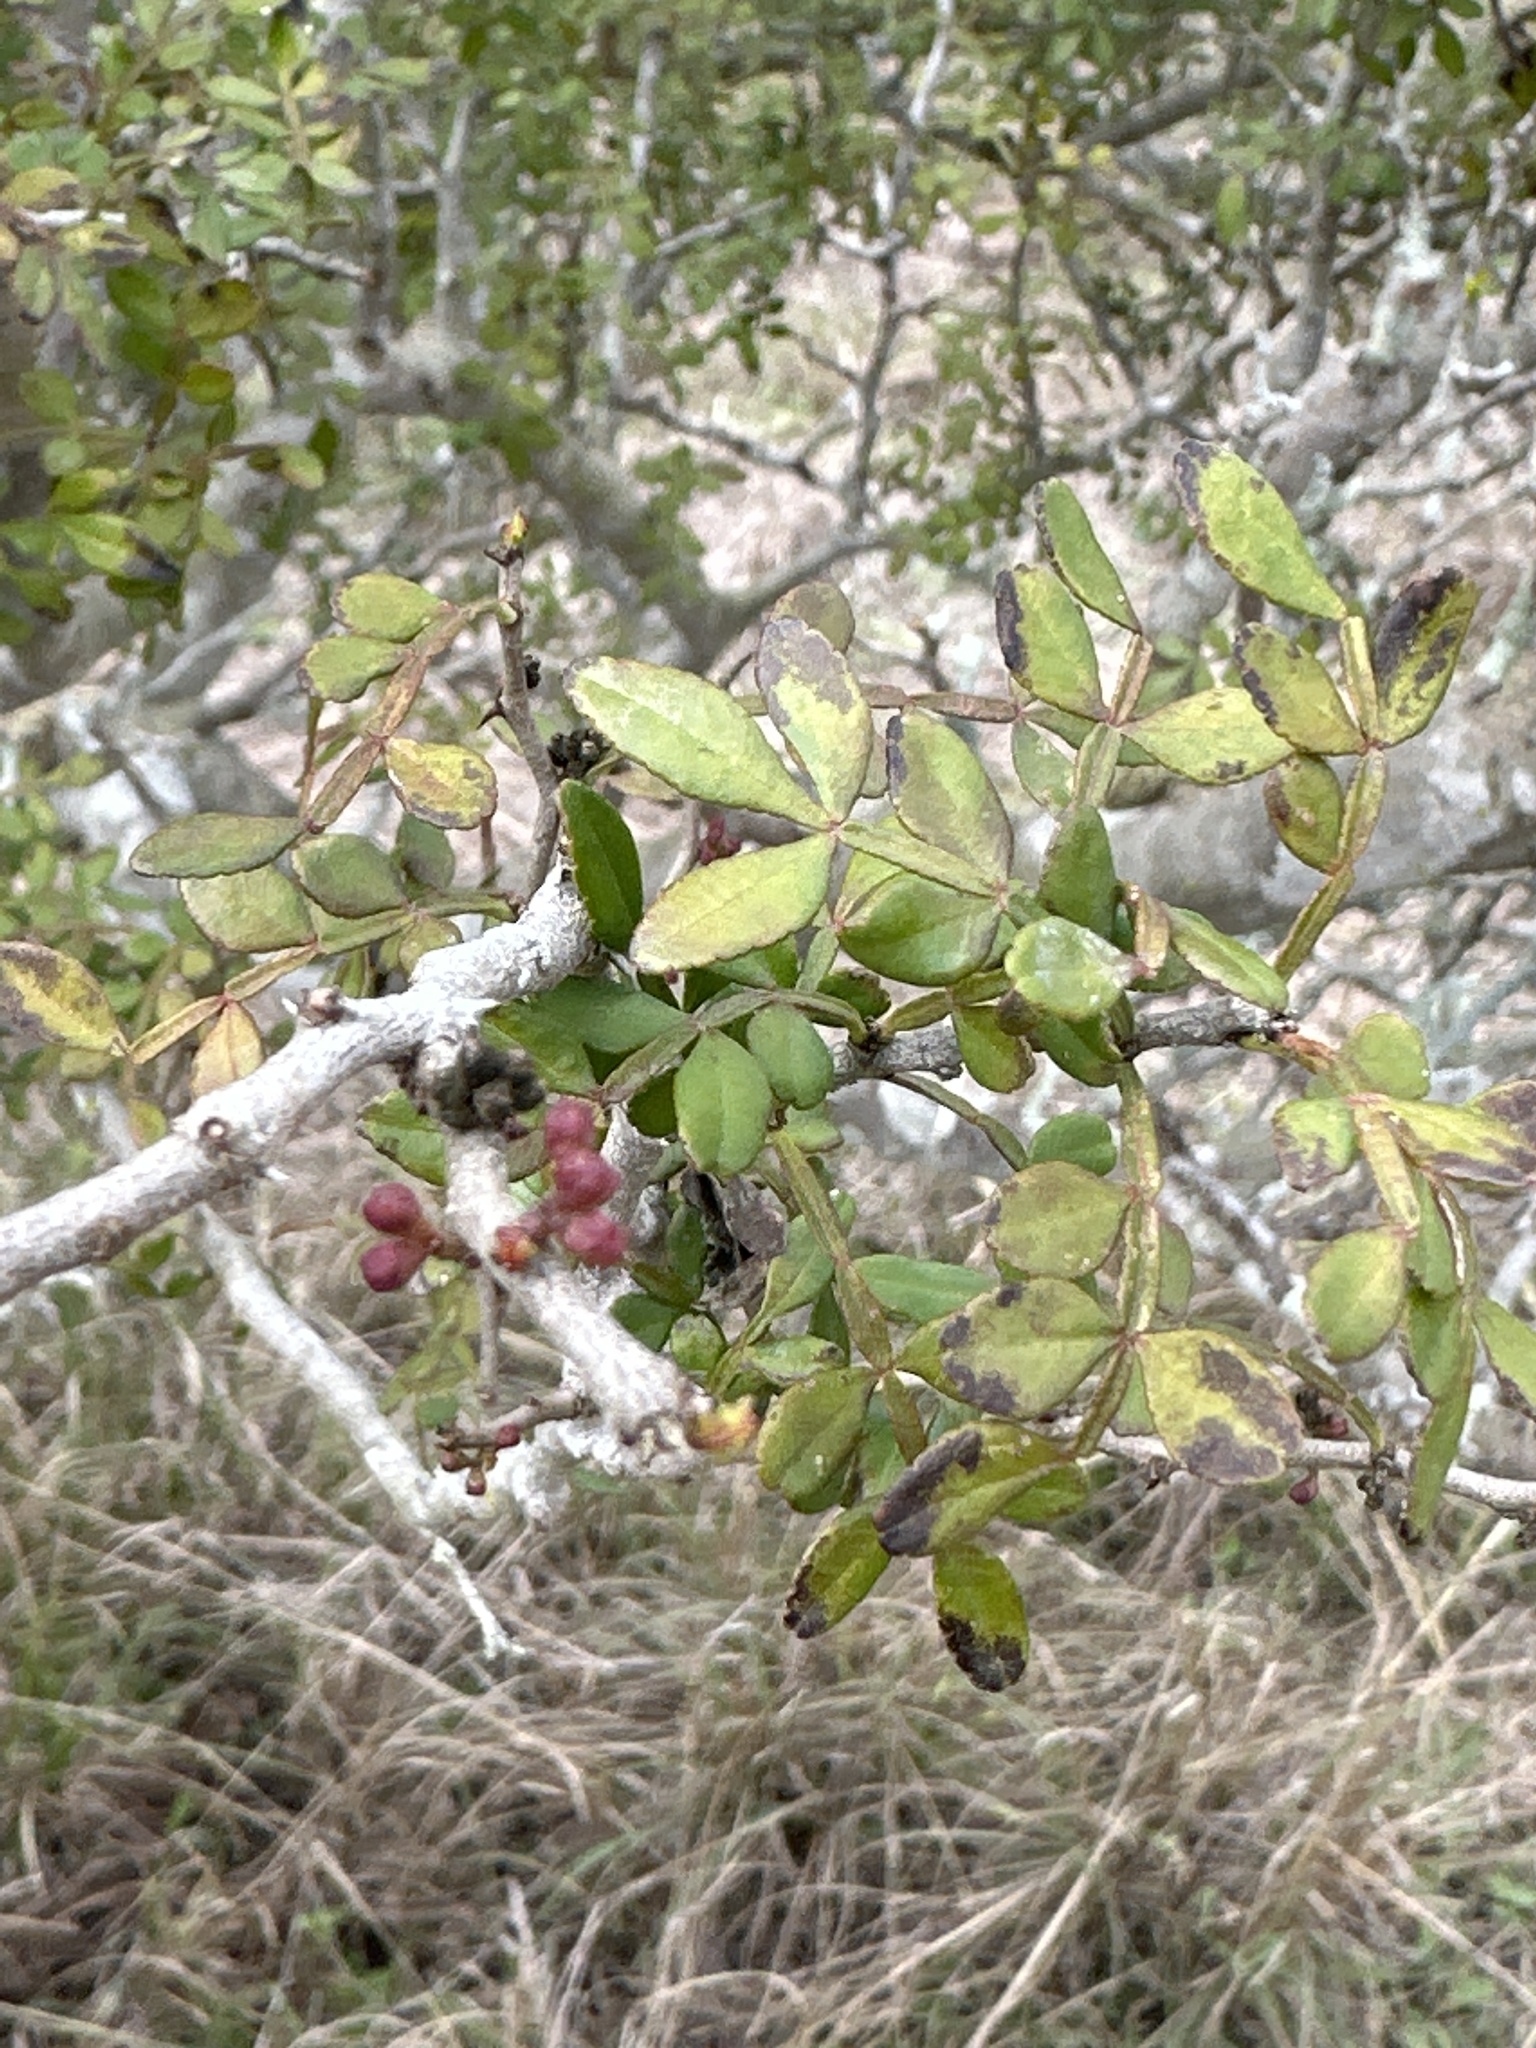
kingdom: Plantae
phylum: Tracheophyta
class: Magnoliopsida
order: Sapindales
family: Rutaceae
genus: Zanthoxylum
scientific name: Zanthoxylum fagara
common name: Lime prickly-ash
